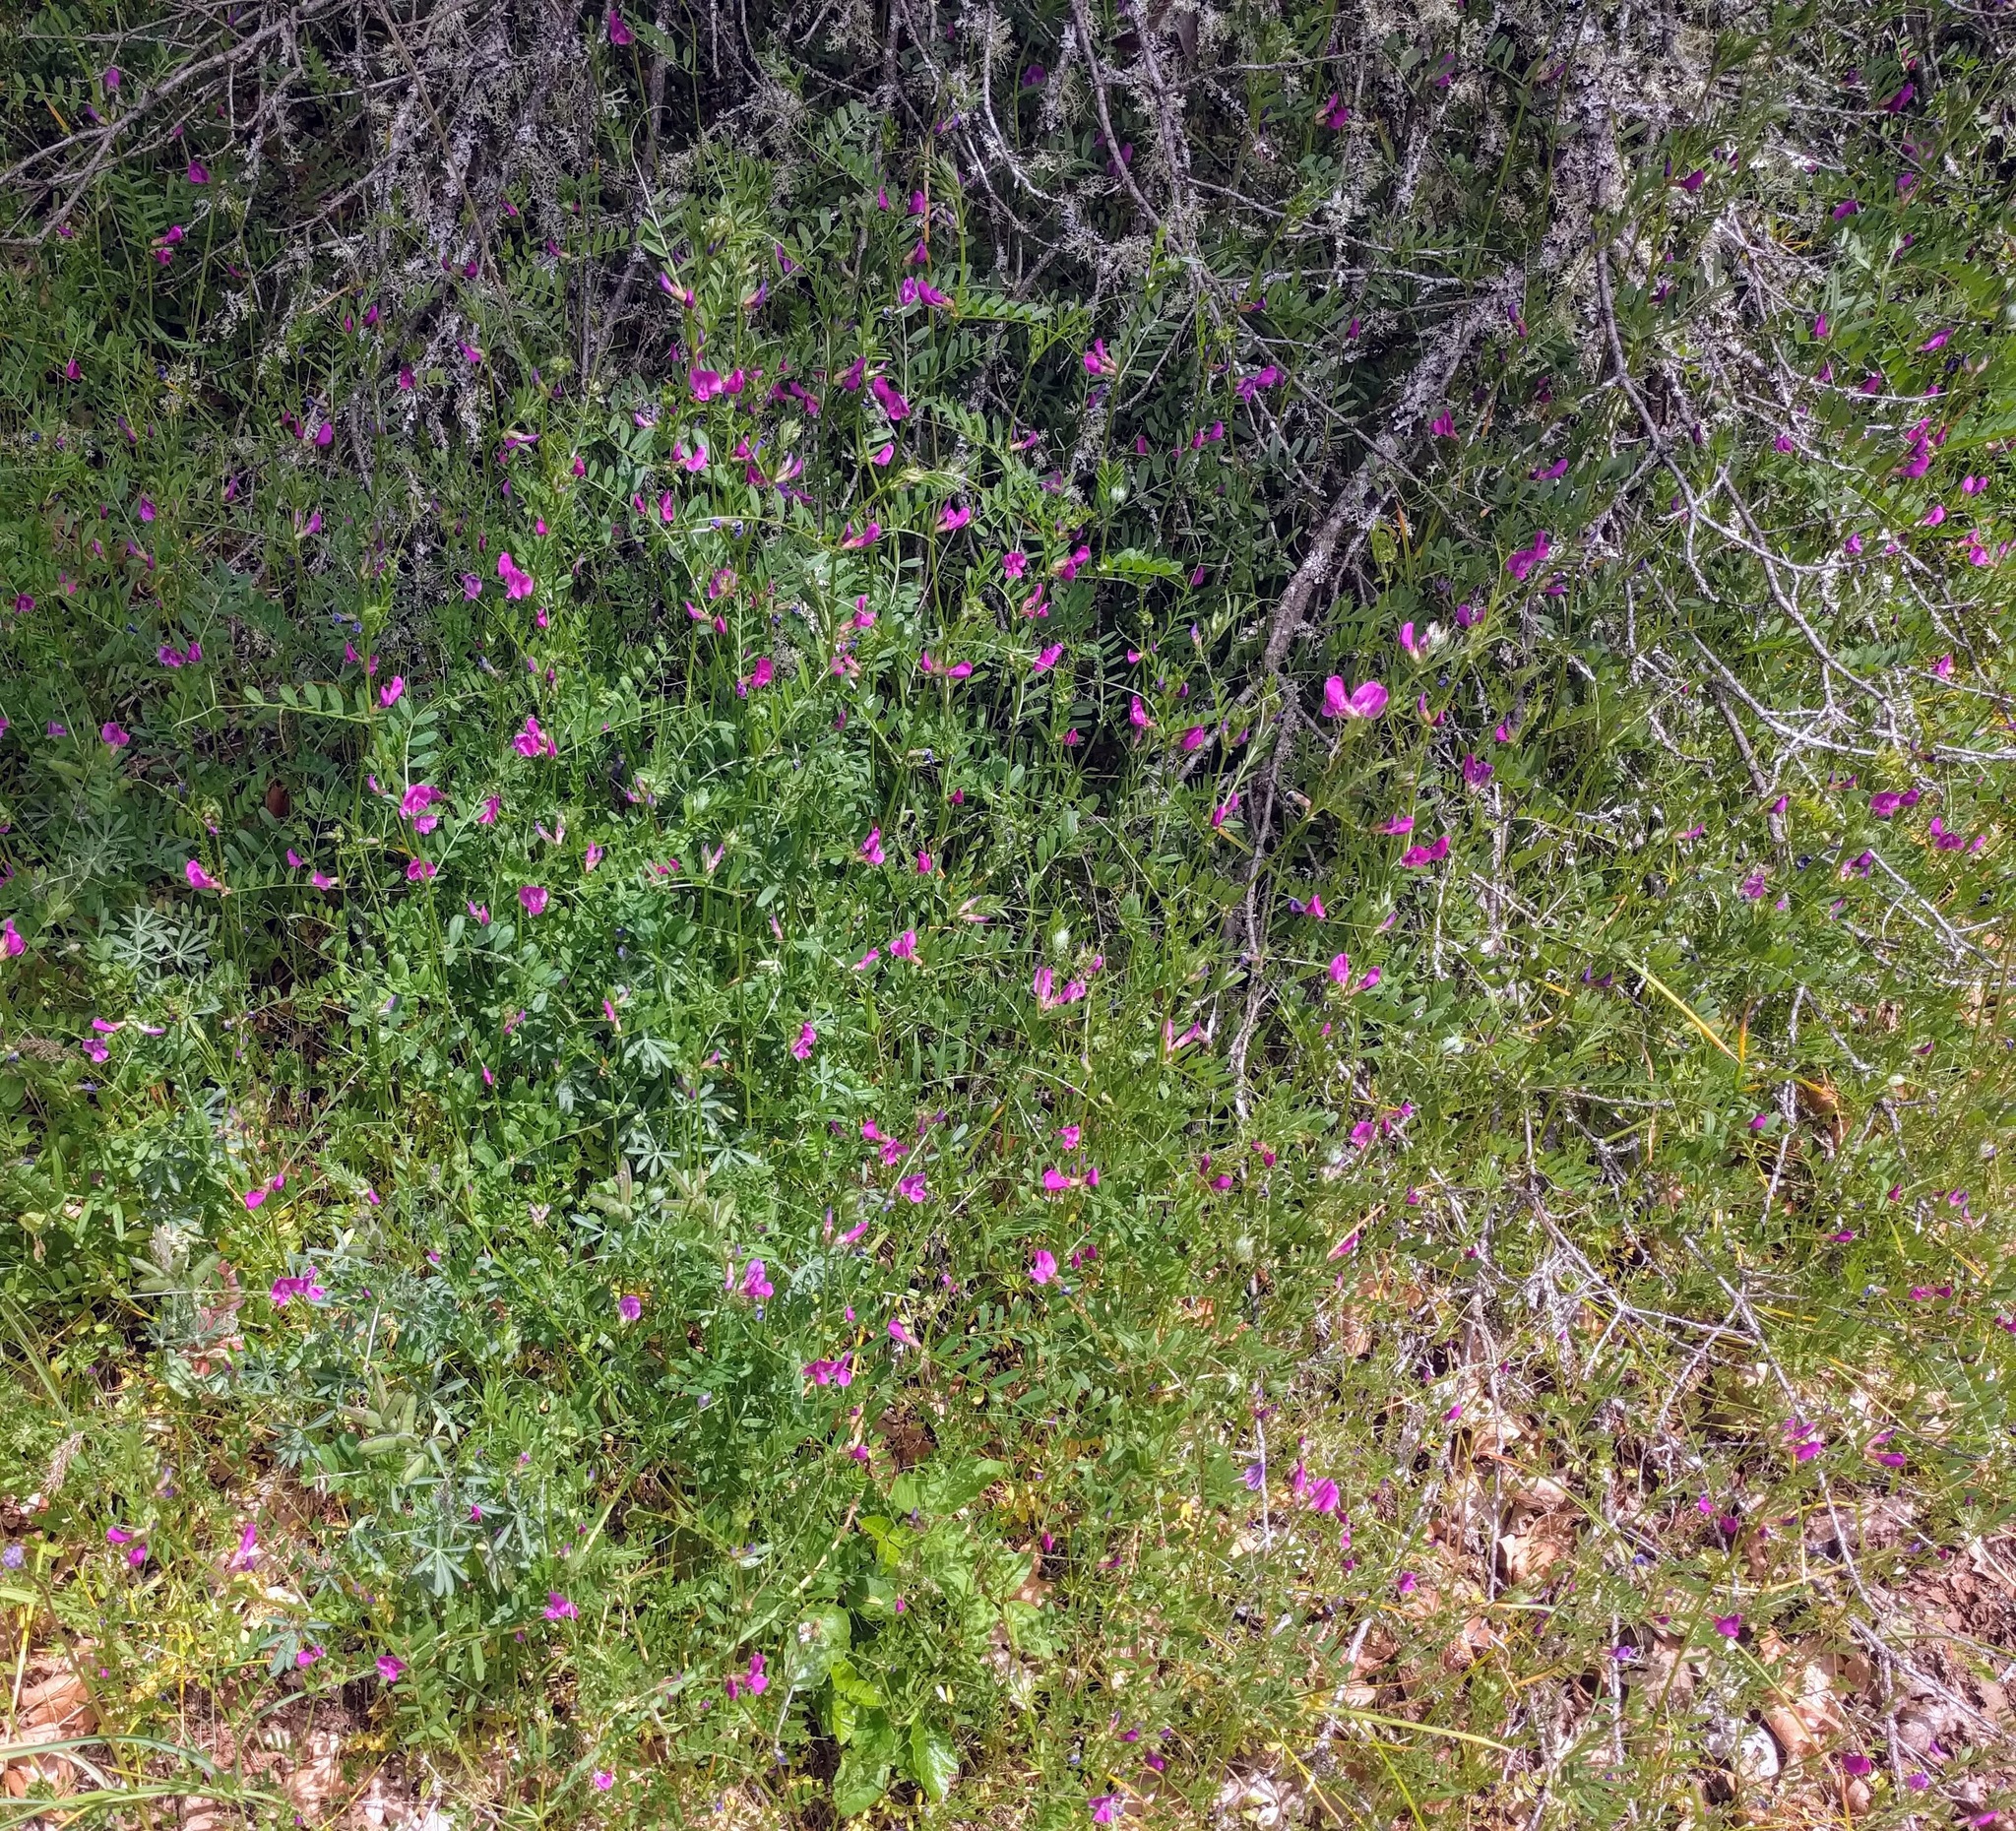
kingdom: Plantae
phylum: Tracheophyta
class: Magnoliopsida
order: Fabales
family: Fabaceae
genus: Vicia
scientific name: Vicia sativa
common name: Garden vetch
